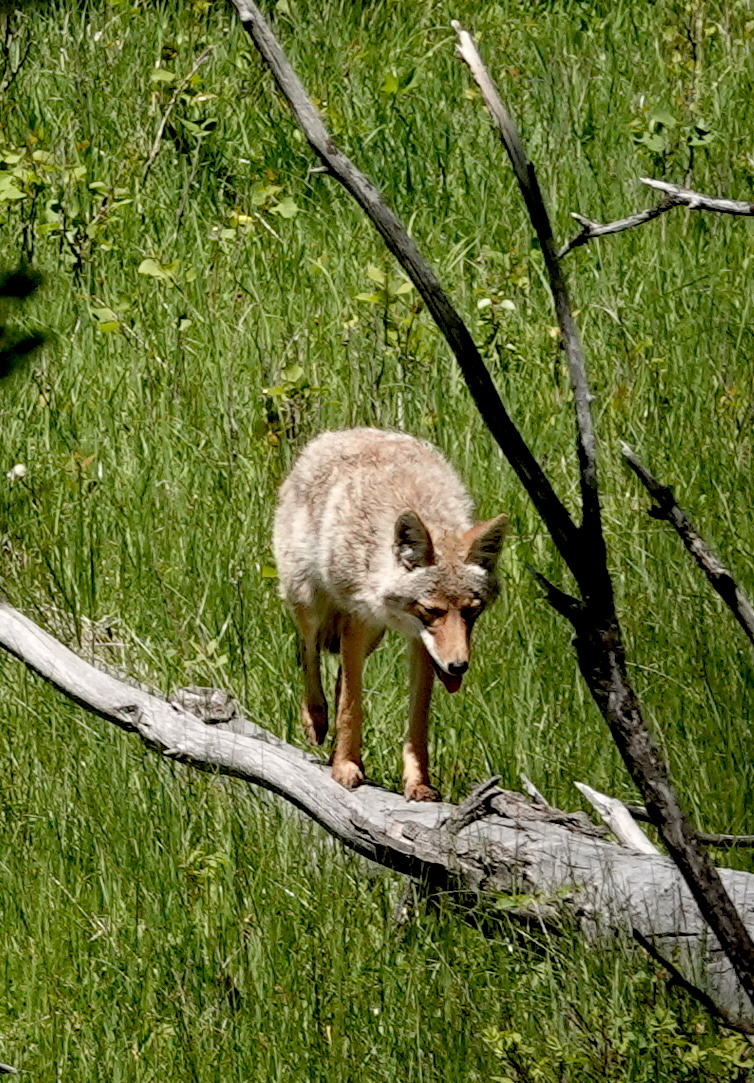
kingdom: Animalia
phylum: Chordata
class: Mammalia
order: Carnivora
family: Canidae
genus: Canis
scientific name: Canis latrans
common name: Coyote
